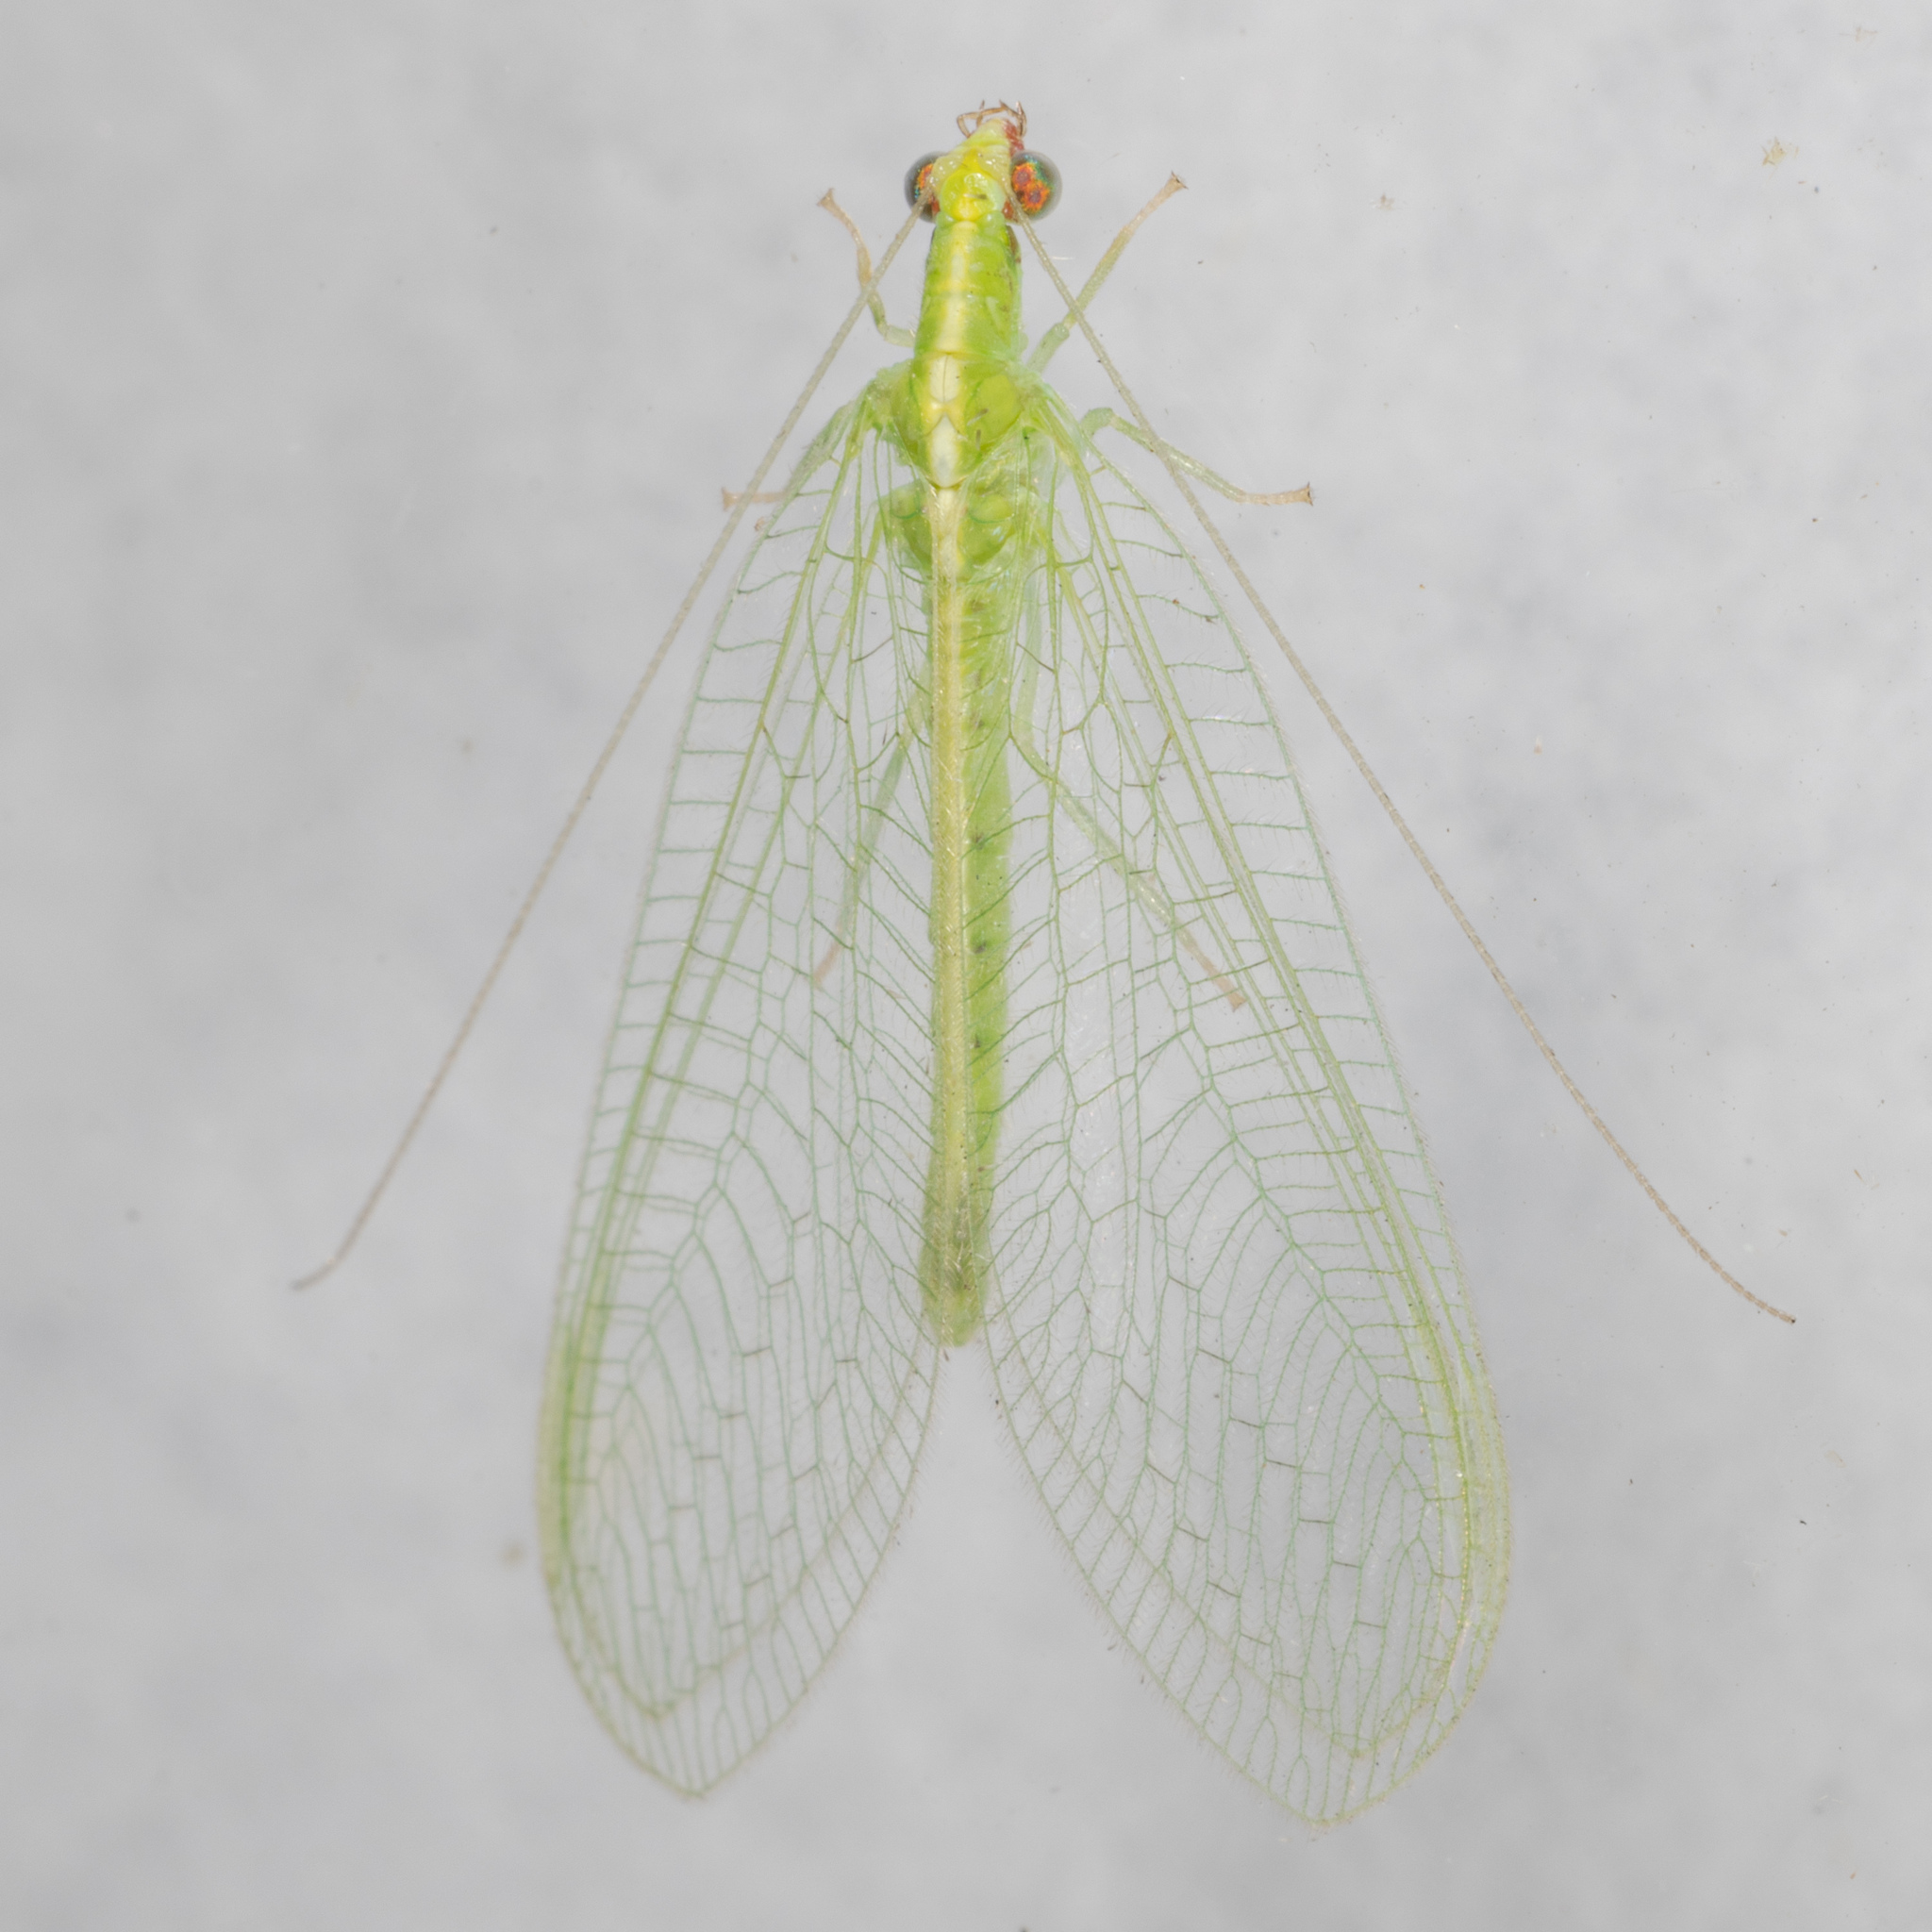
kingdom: Animalia
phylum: Arthropoda
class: Insecta
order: Neuroptera
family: Chrysopidae
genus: Chrysoperla
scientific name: Chrysoperla rufilabris
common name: Red-lipped green lacewing
